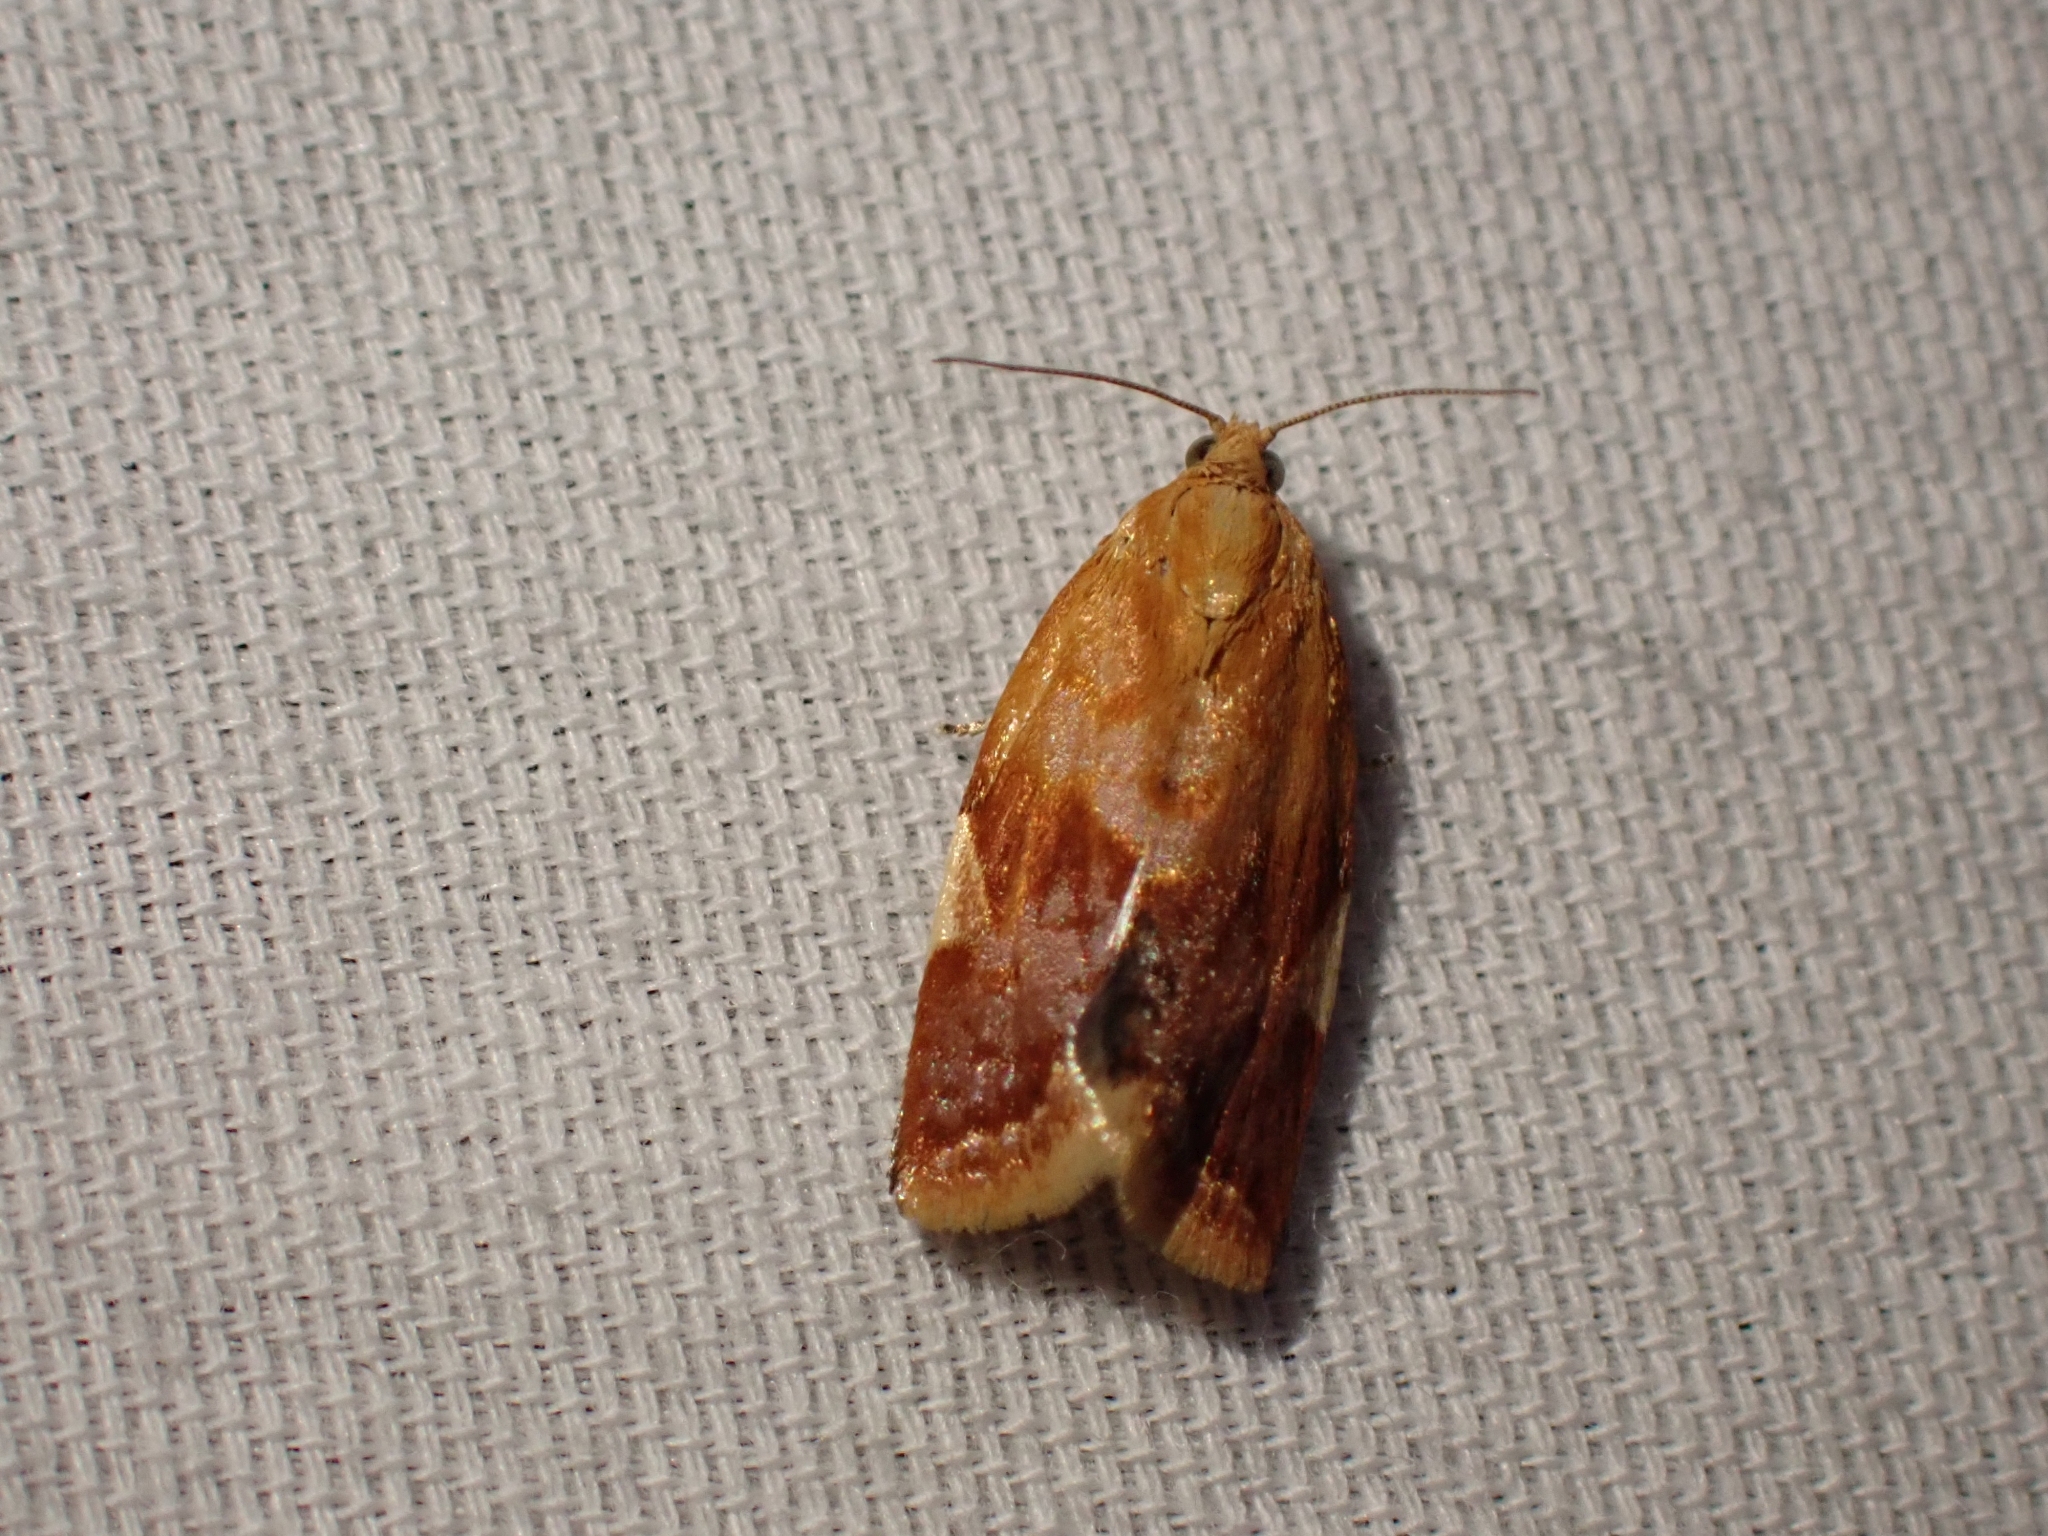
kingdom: Animalia
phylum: Arthropoda
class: Insecta
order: Lepidoptera
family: Tortricidae
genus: Clepsis
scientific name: Clepsis persicana
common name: White triangle tortrix
